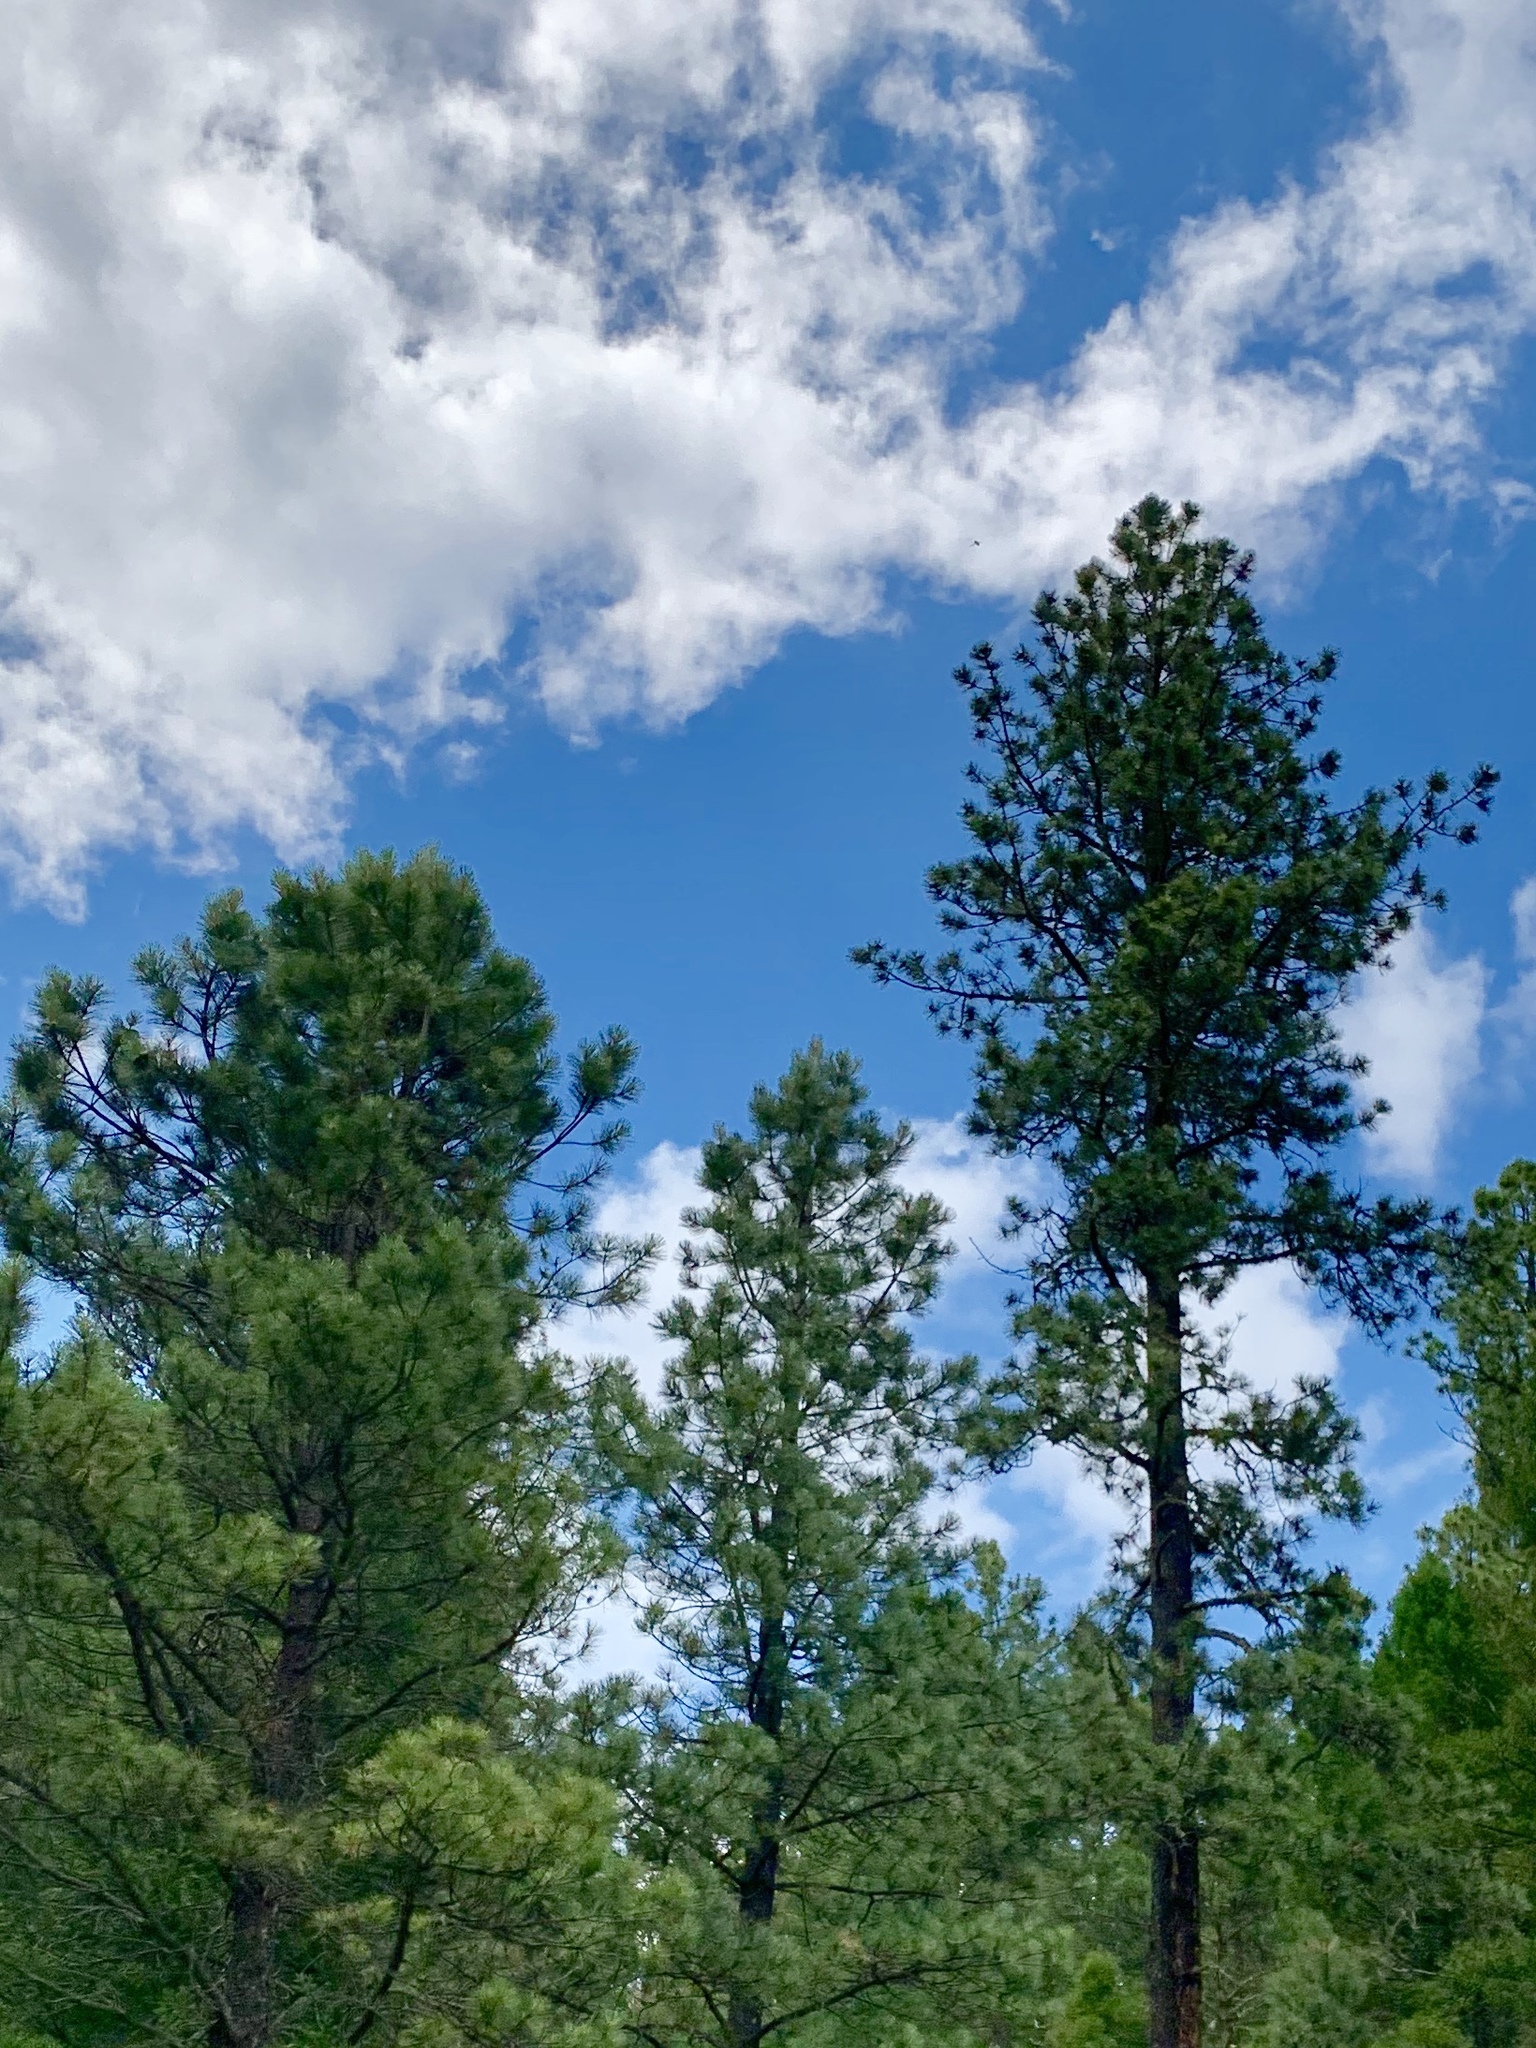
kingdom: Plantae
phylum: Tracheophyta
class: Pinopsida
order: Pinales
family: Pinaceae
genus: Pinus
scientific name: Pinus ponderosa
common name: Western yellow-pine
